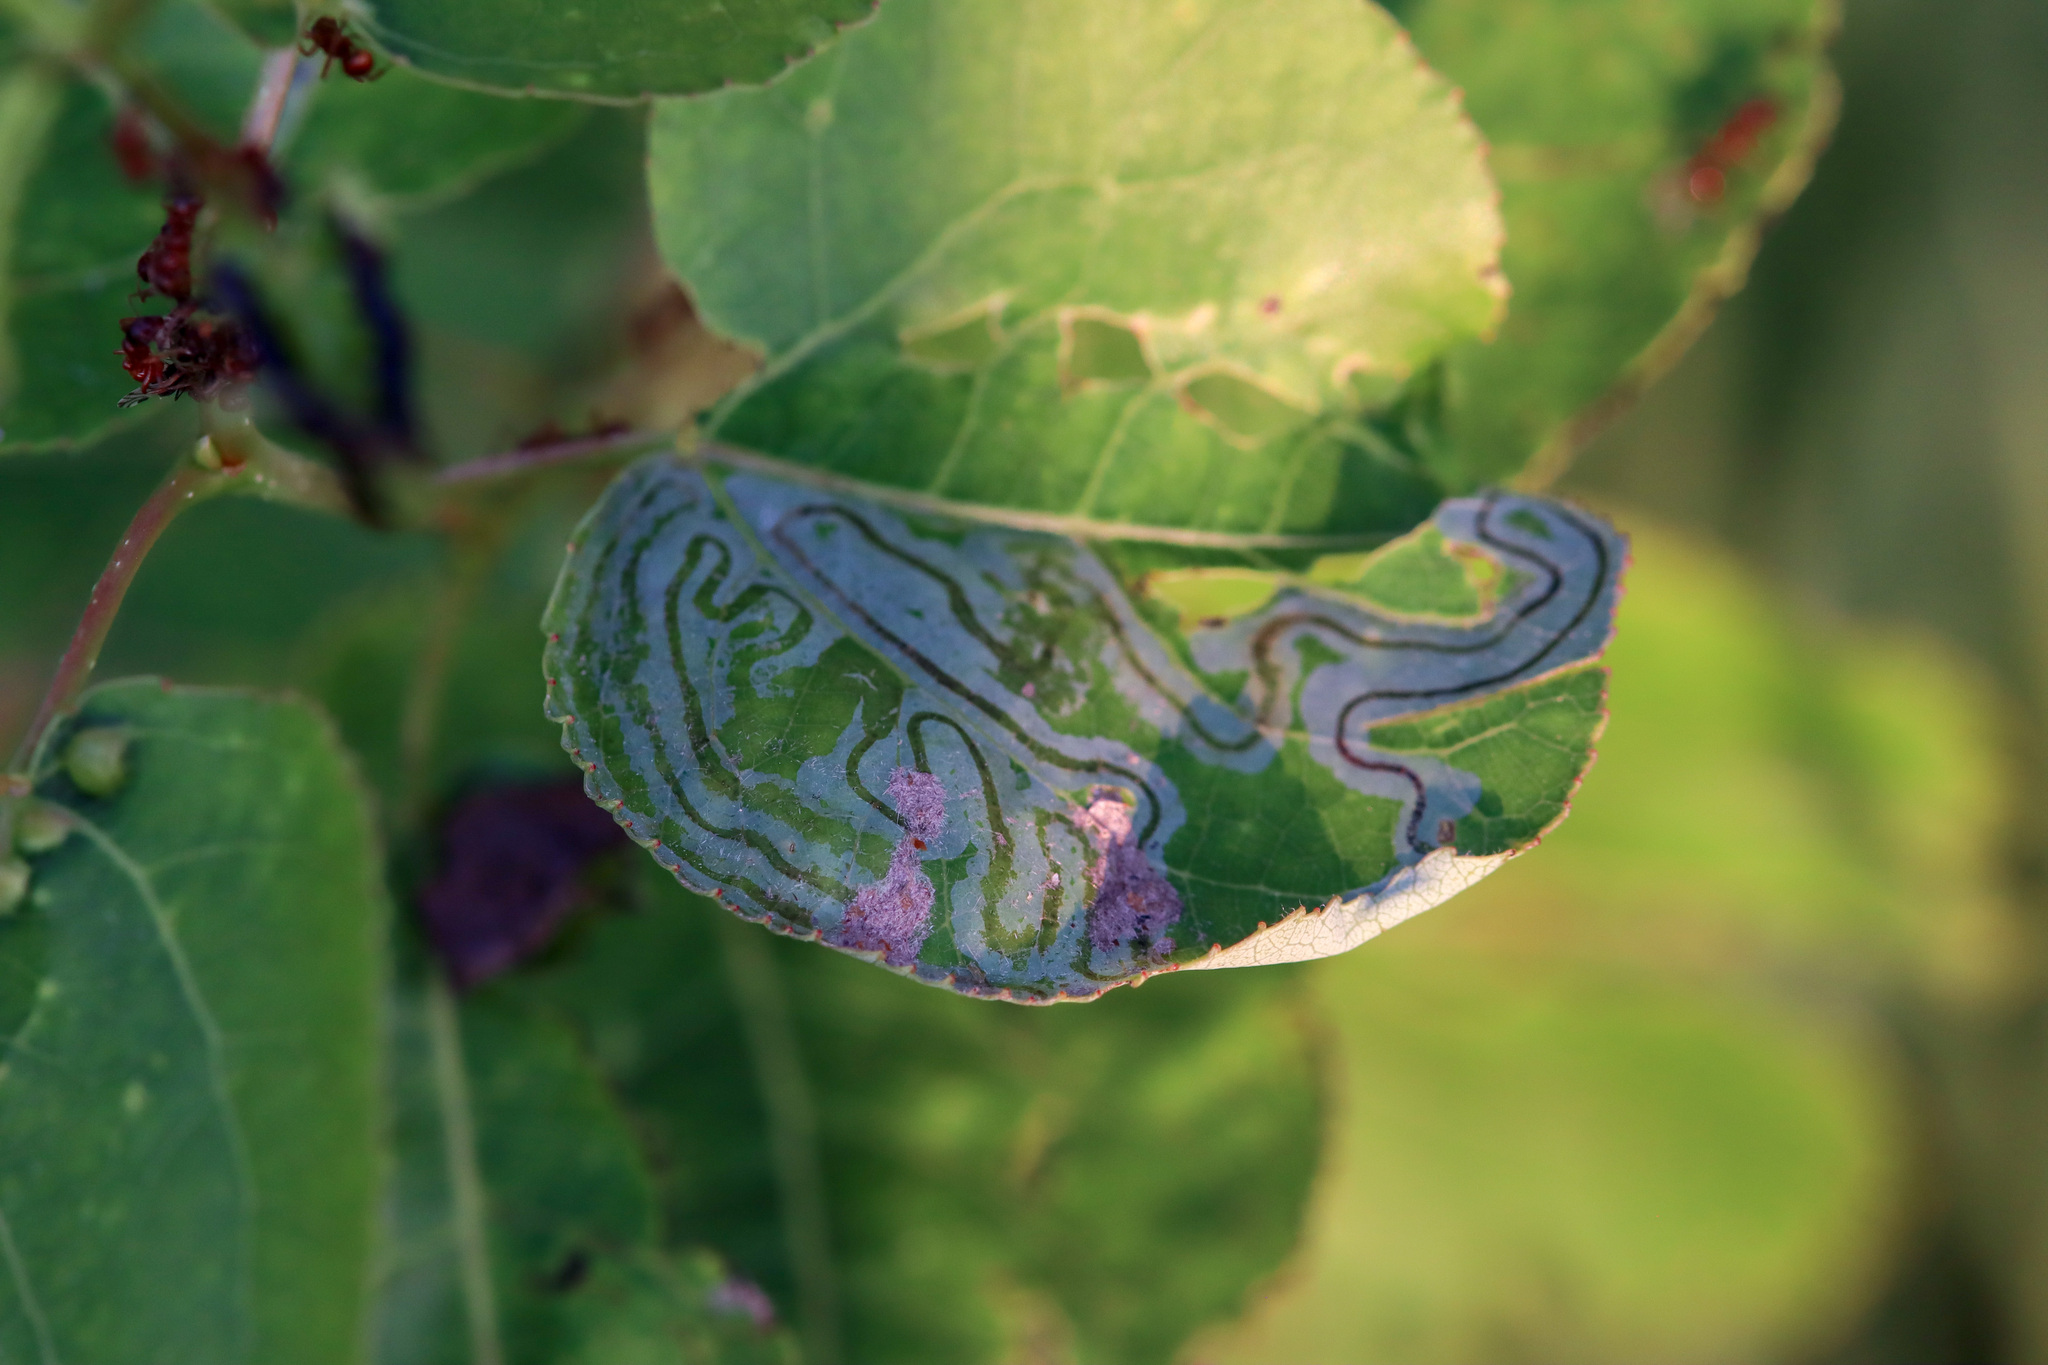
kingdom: Animalia
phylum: Arthropoda
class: Insecta
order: Lepidoptera
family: Gracillariidae
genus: Phyllocnistis
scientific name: Phyllocnistis populiella
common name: Aspen serpentine leafminer moth
